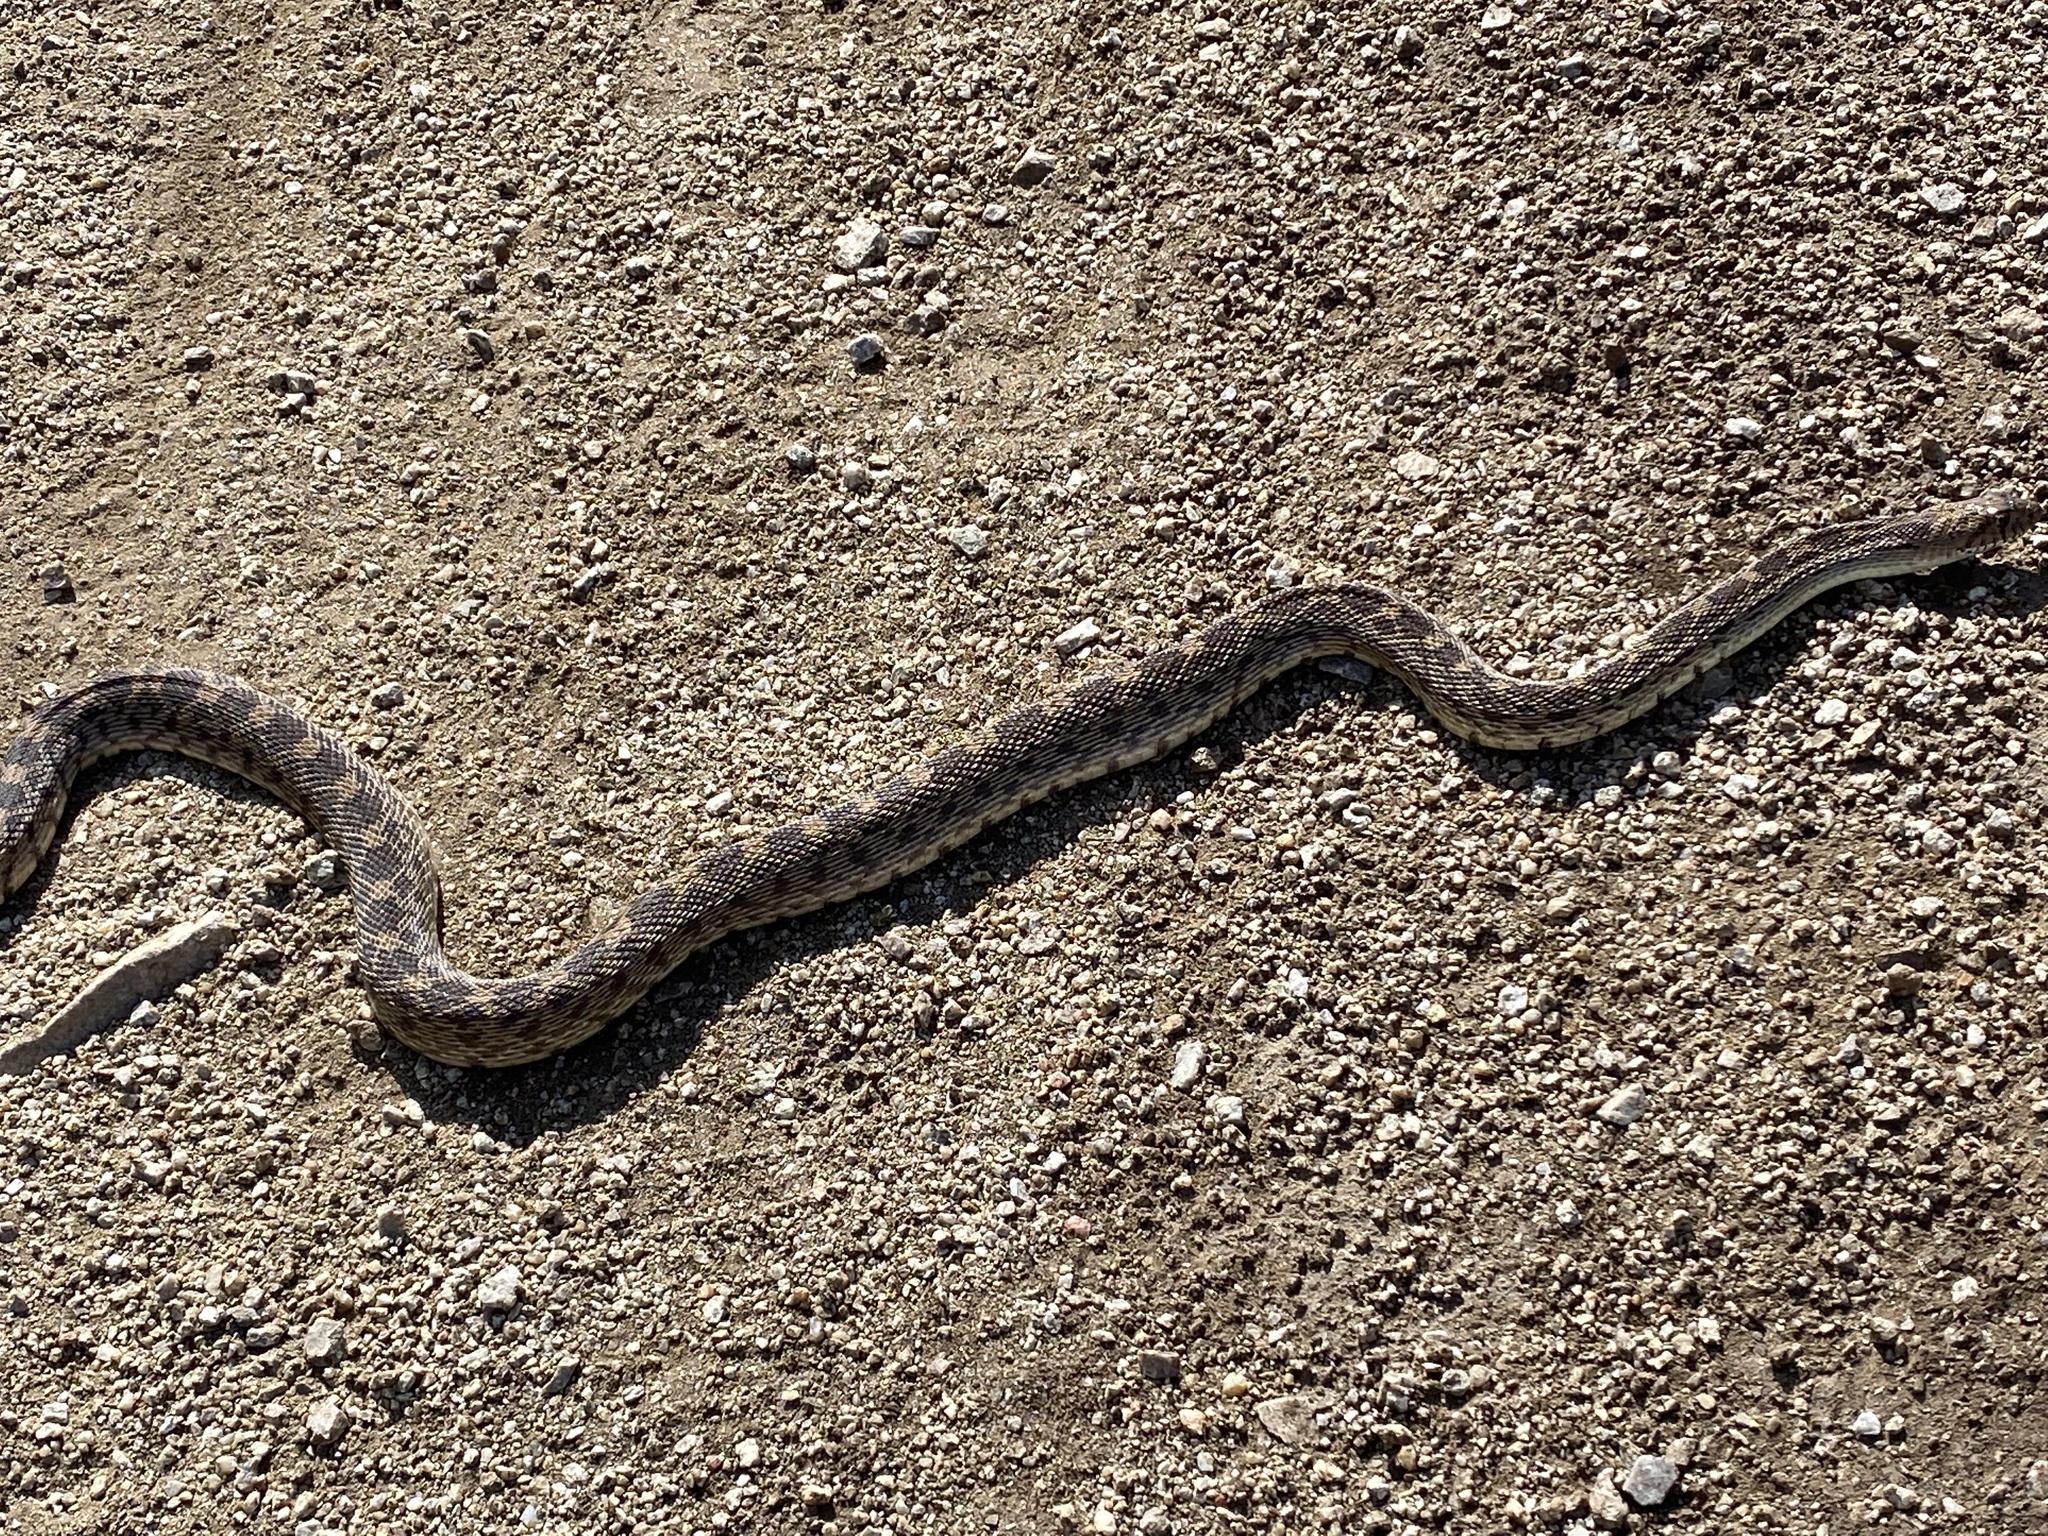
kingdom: Animalia
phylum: Chordata
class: Squamata
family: Colubridae
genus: Pituophis
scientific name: Pituophis catenifer
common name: Gopher snake
